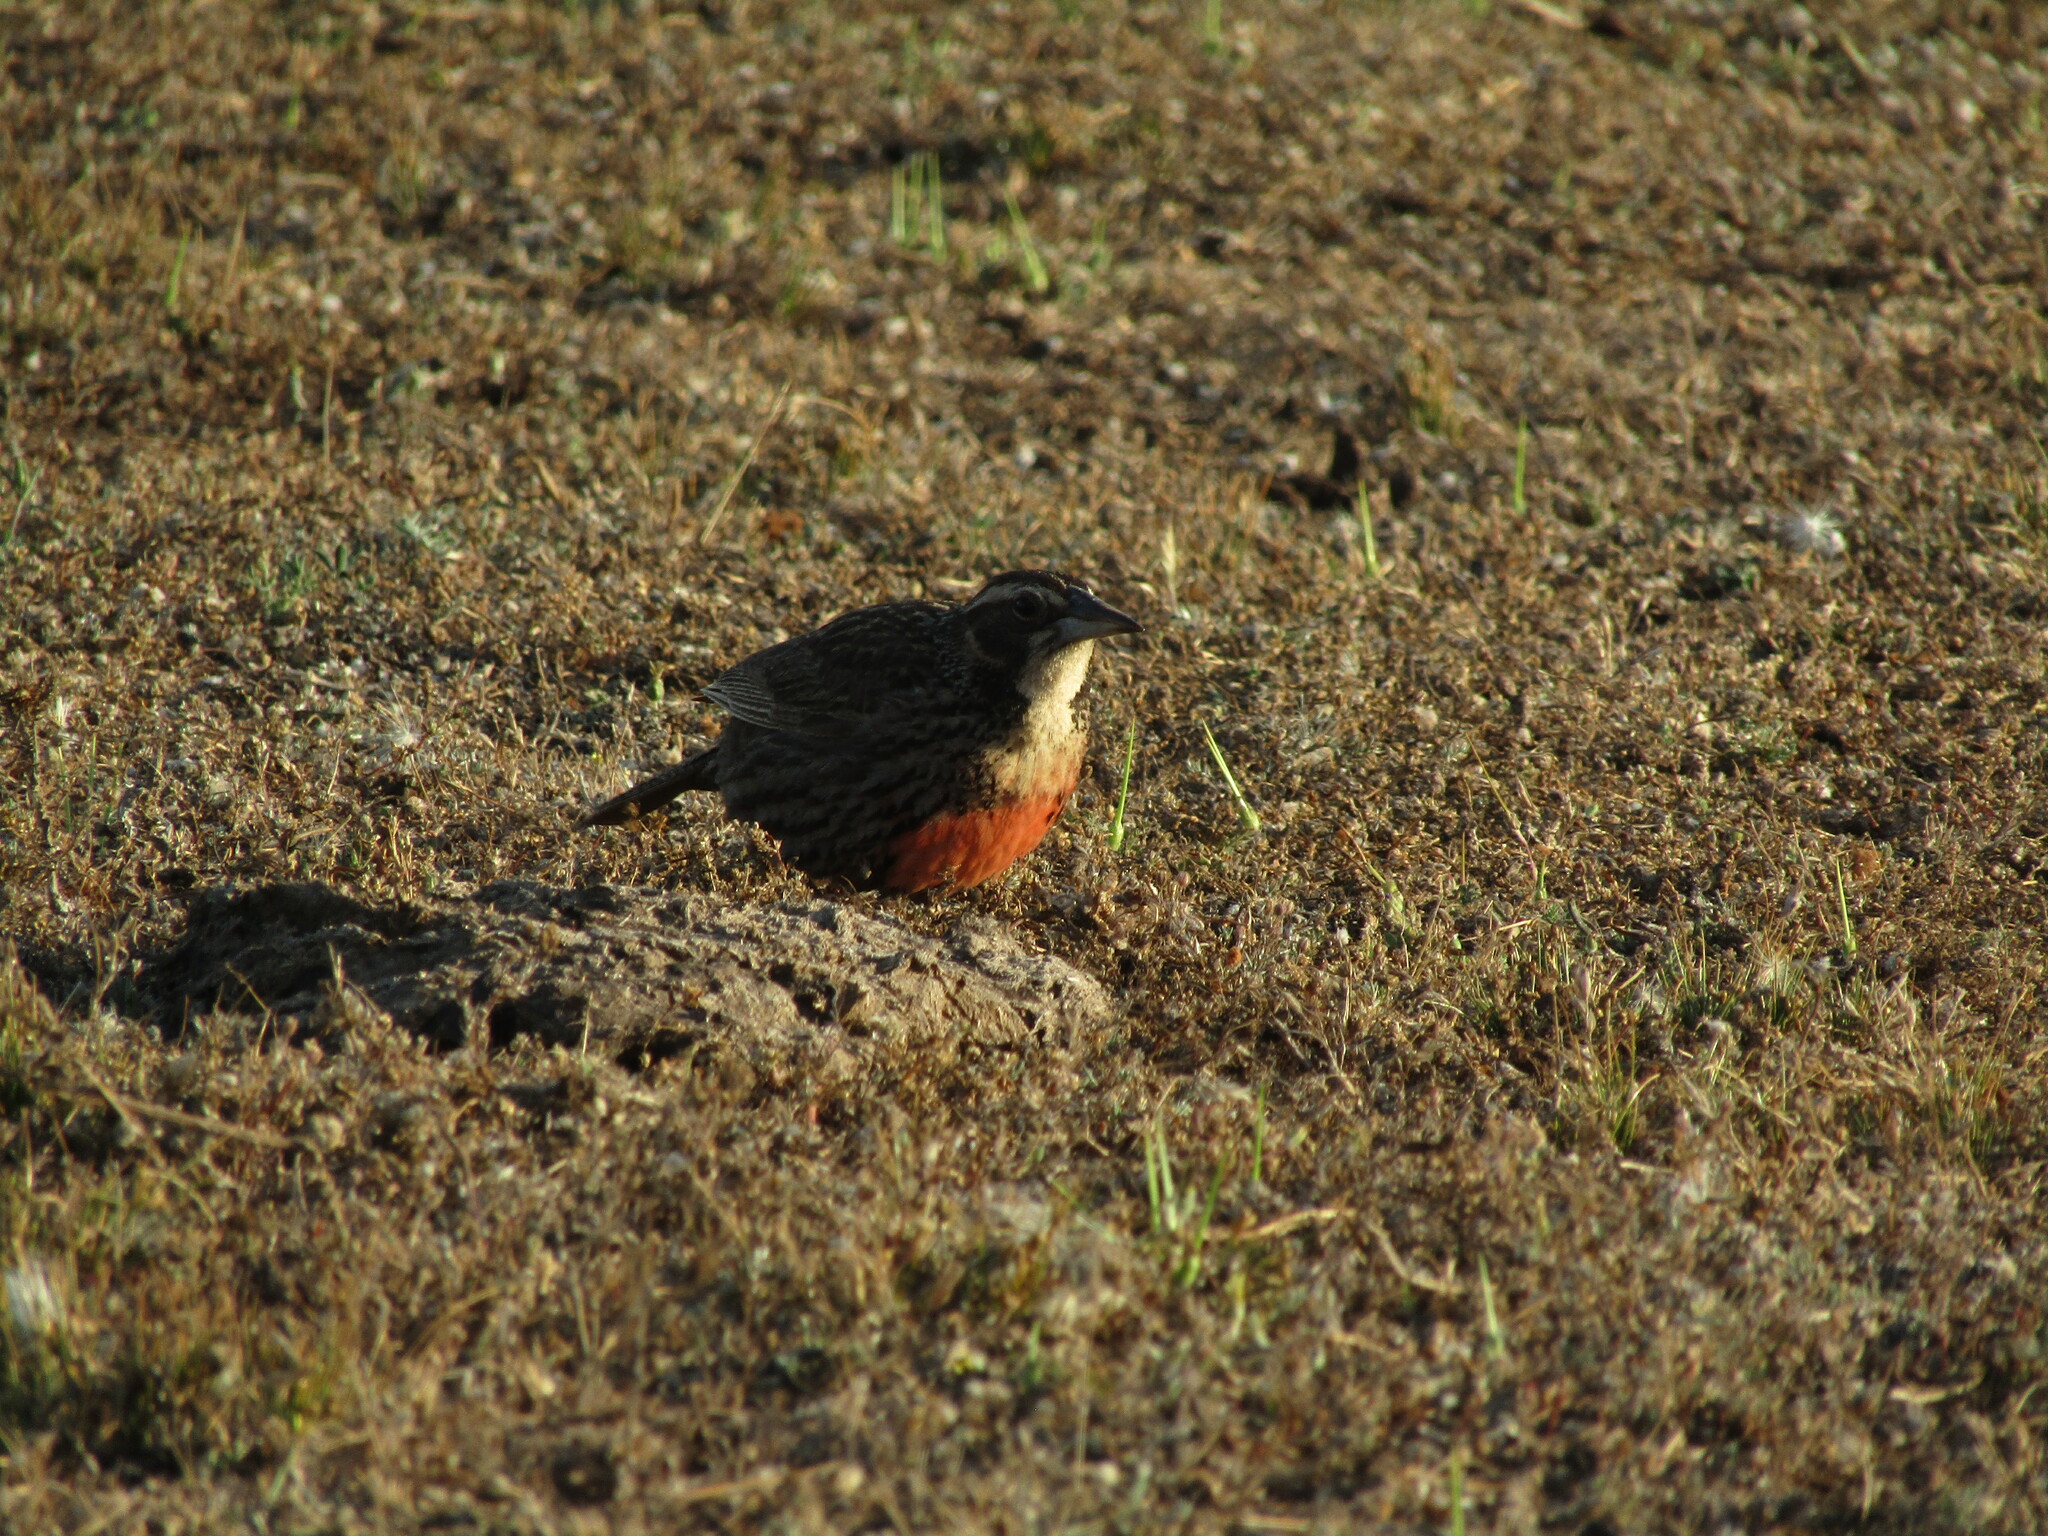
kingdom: Animalia
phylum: Chordata
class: Aves
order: Passeriformes
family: Icteridae
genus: Sturnella
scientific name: Sturnella loyca
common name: Long-tailed meadowlark
